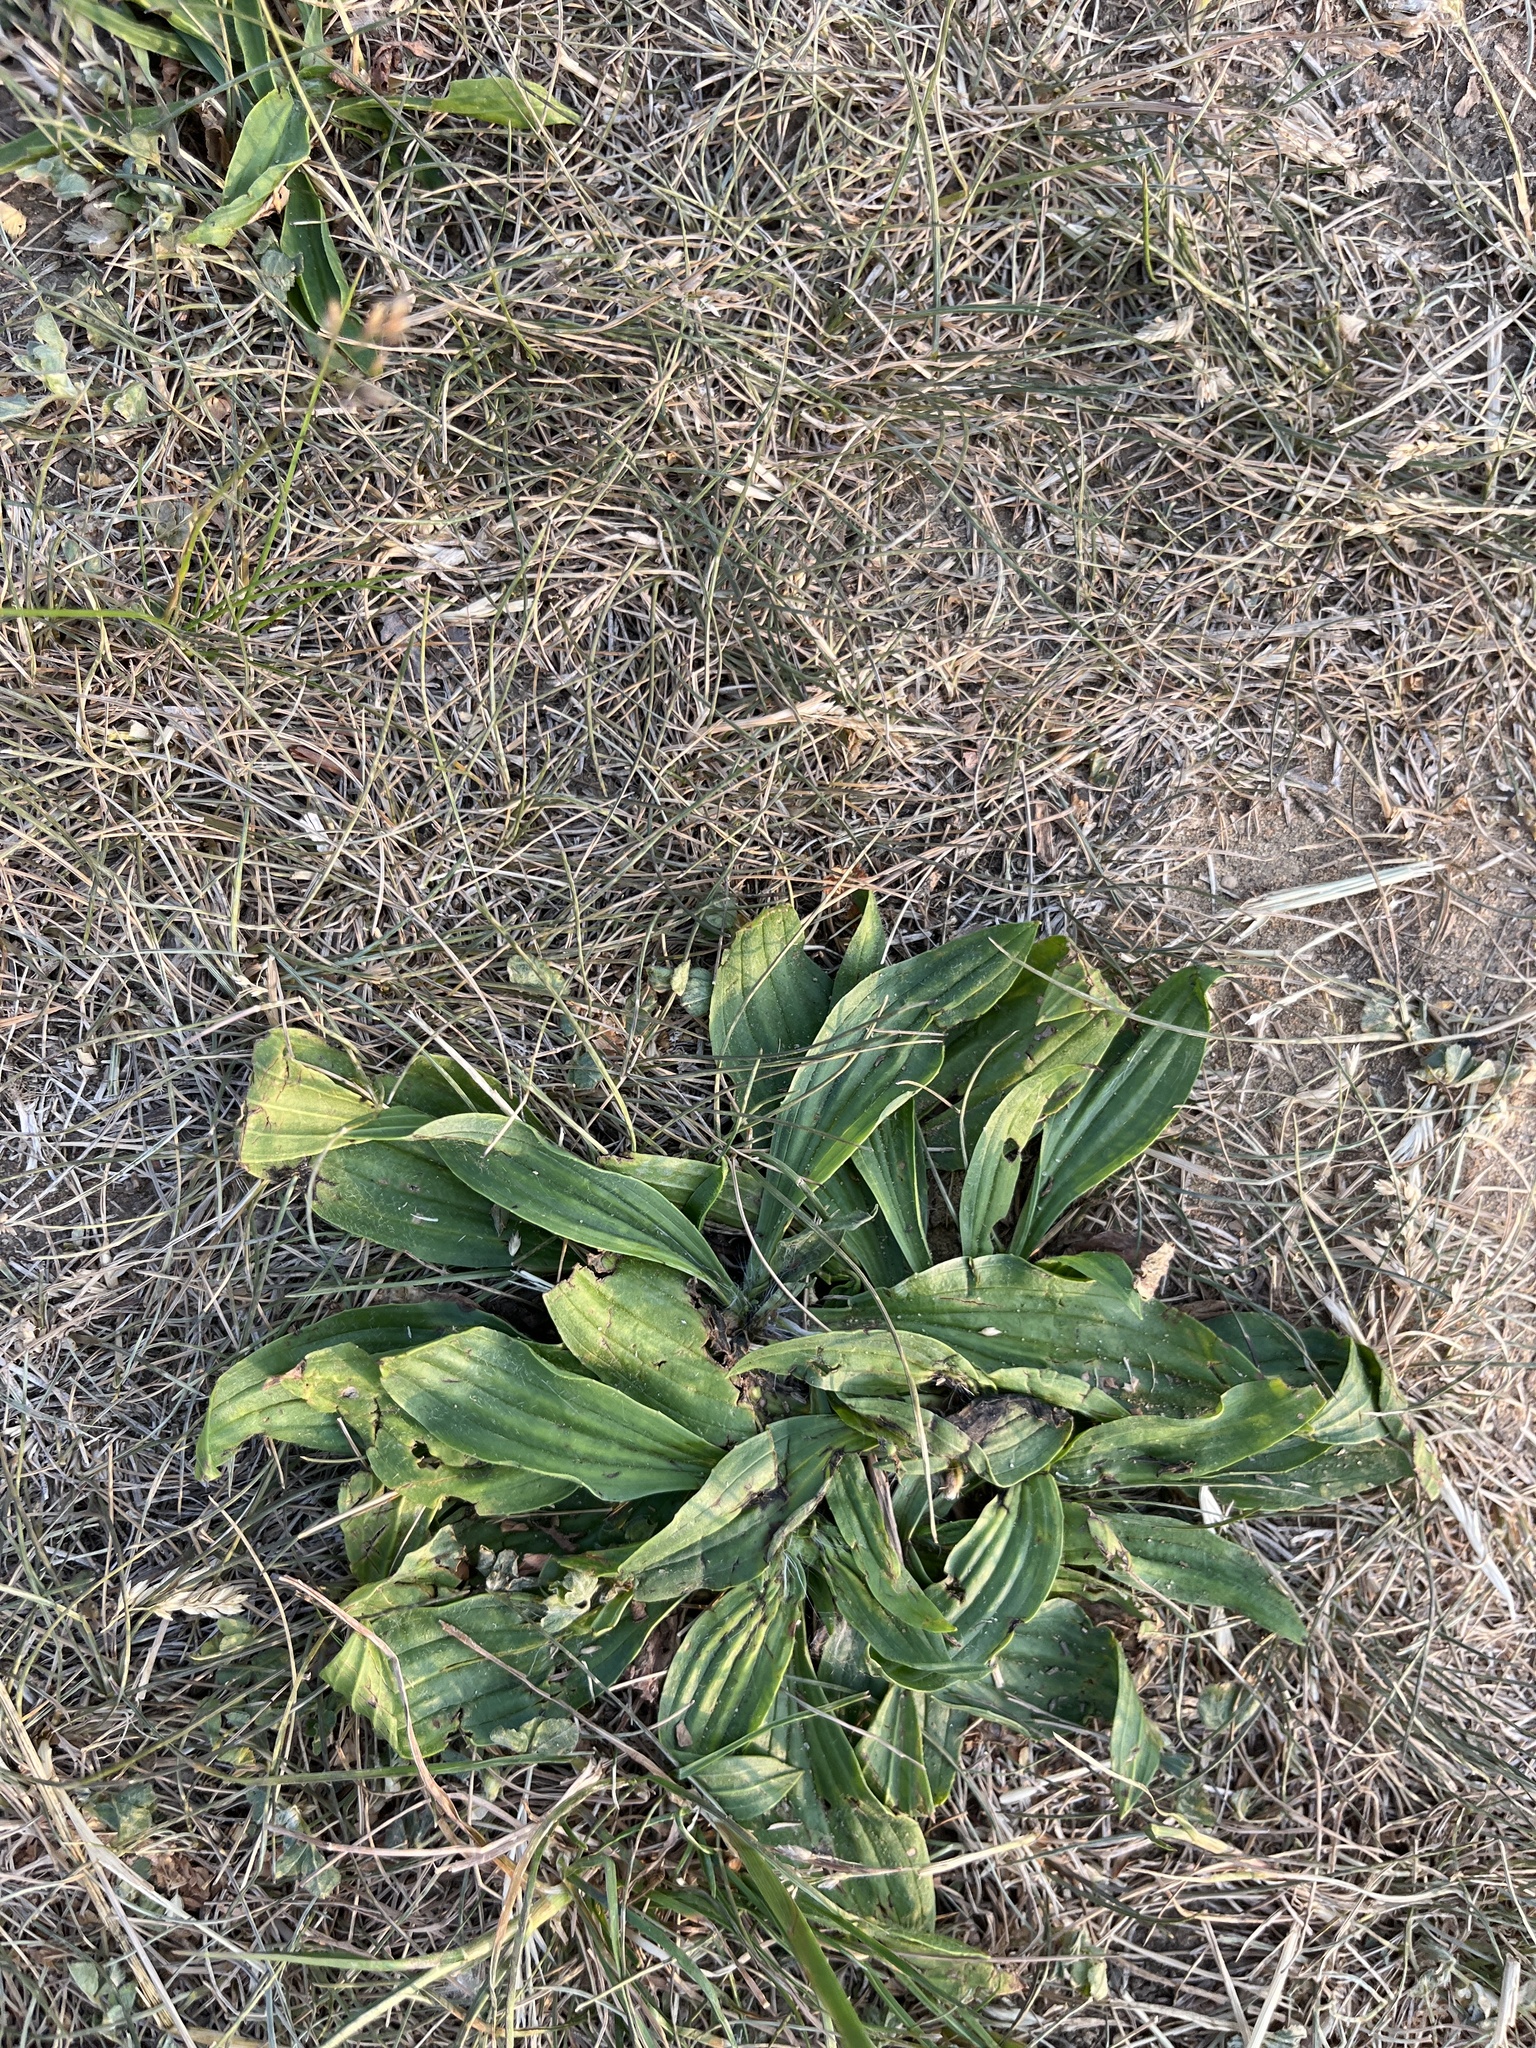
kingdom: Plantae
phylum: Tracheophyta
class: Magnoliopsida
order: Lamiales
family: Plantaginaceae
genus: Plantago
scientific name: Plantago lanceolata
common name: Ribwort plantain
